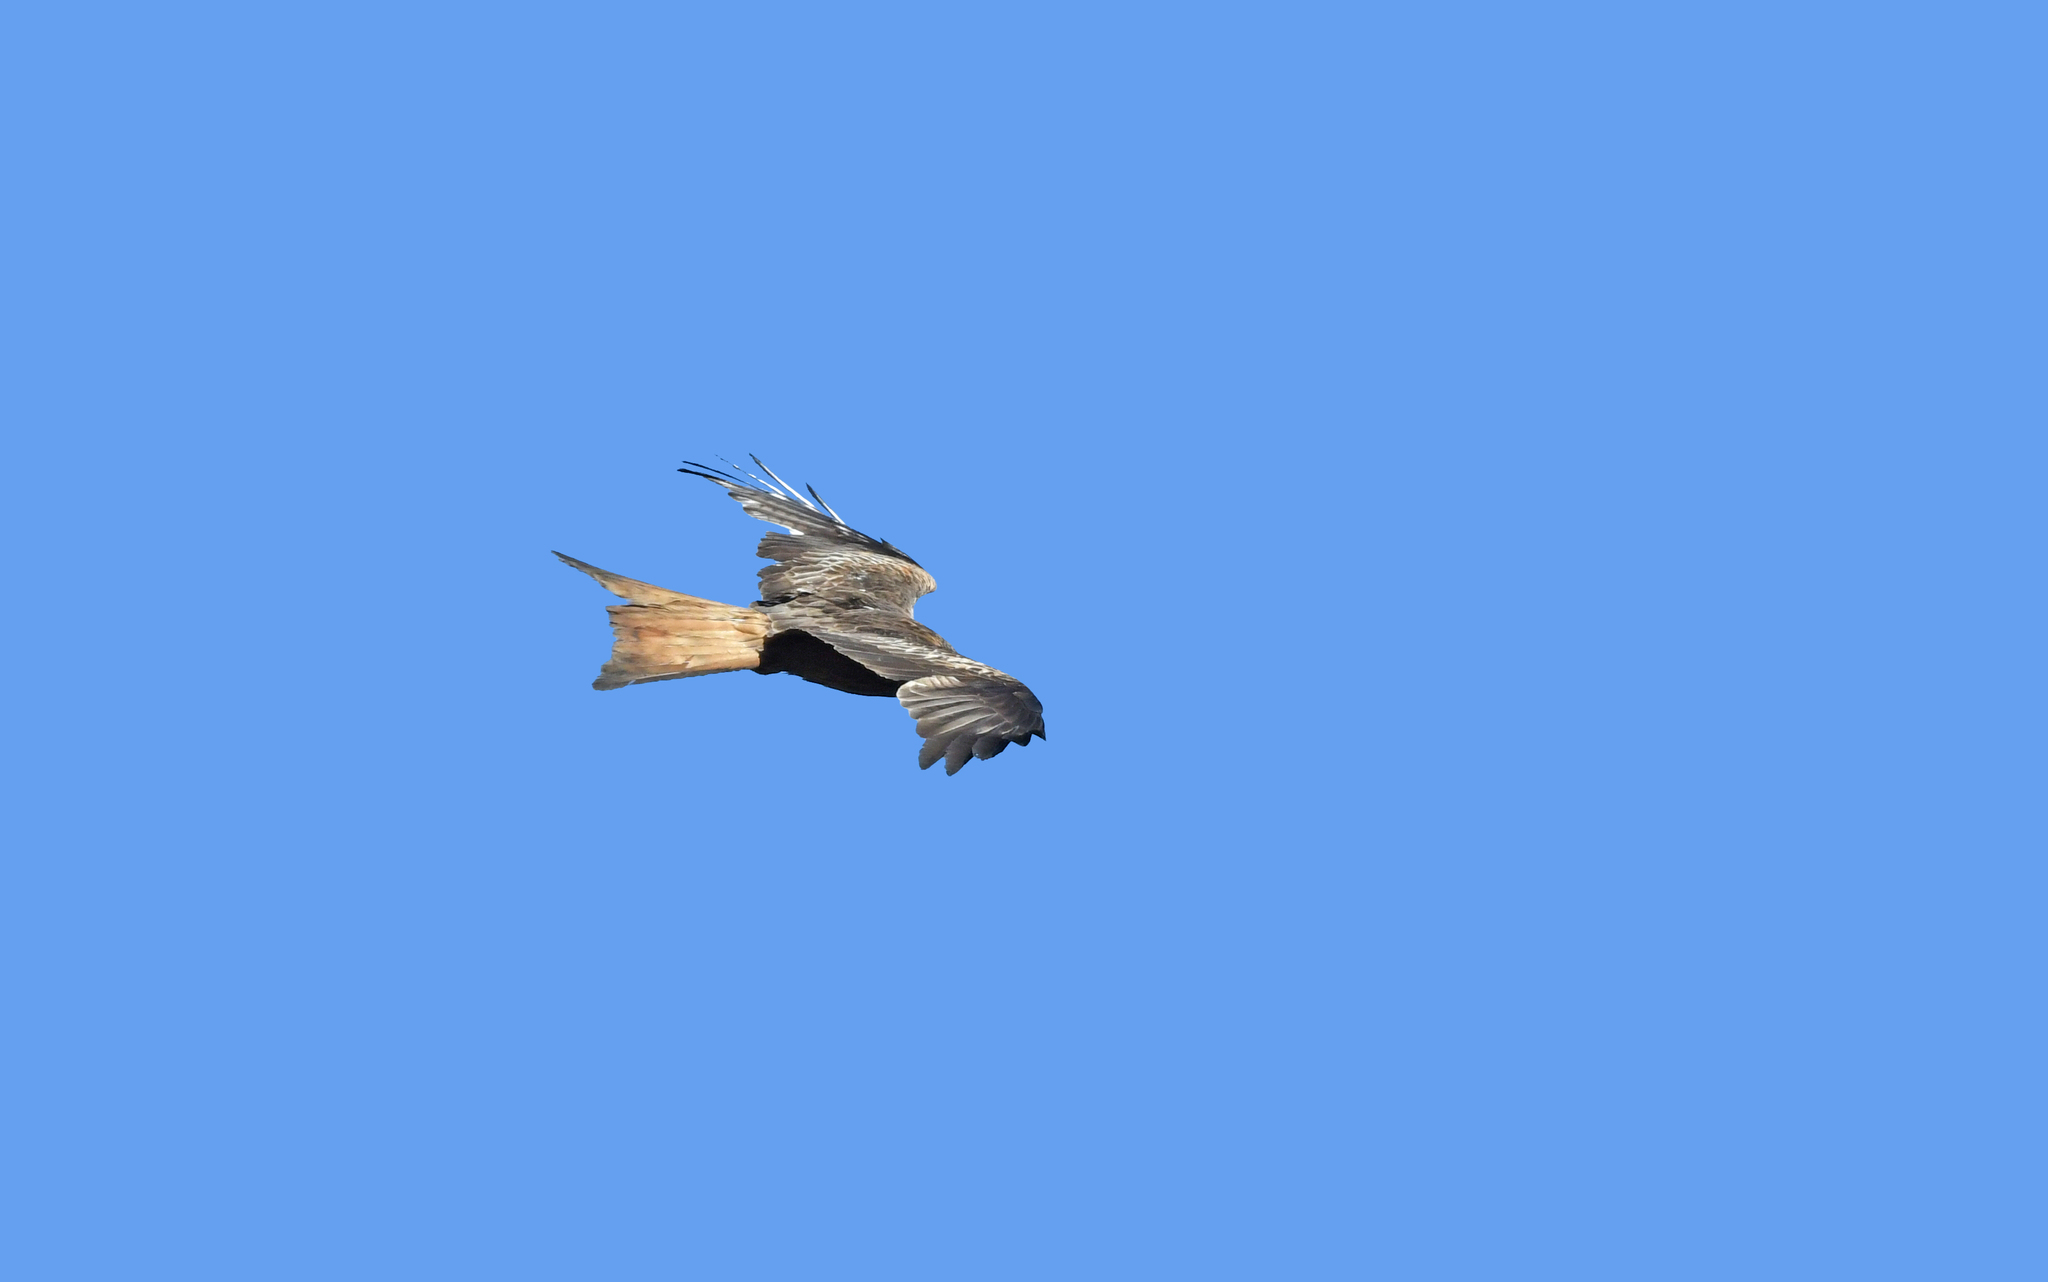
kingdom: Animalia
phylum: Chordata
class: Aves
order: Accipitriformes
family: Accipitridae
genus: Milvus
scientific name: Milvus milvus
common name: Red kite
